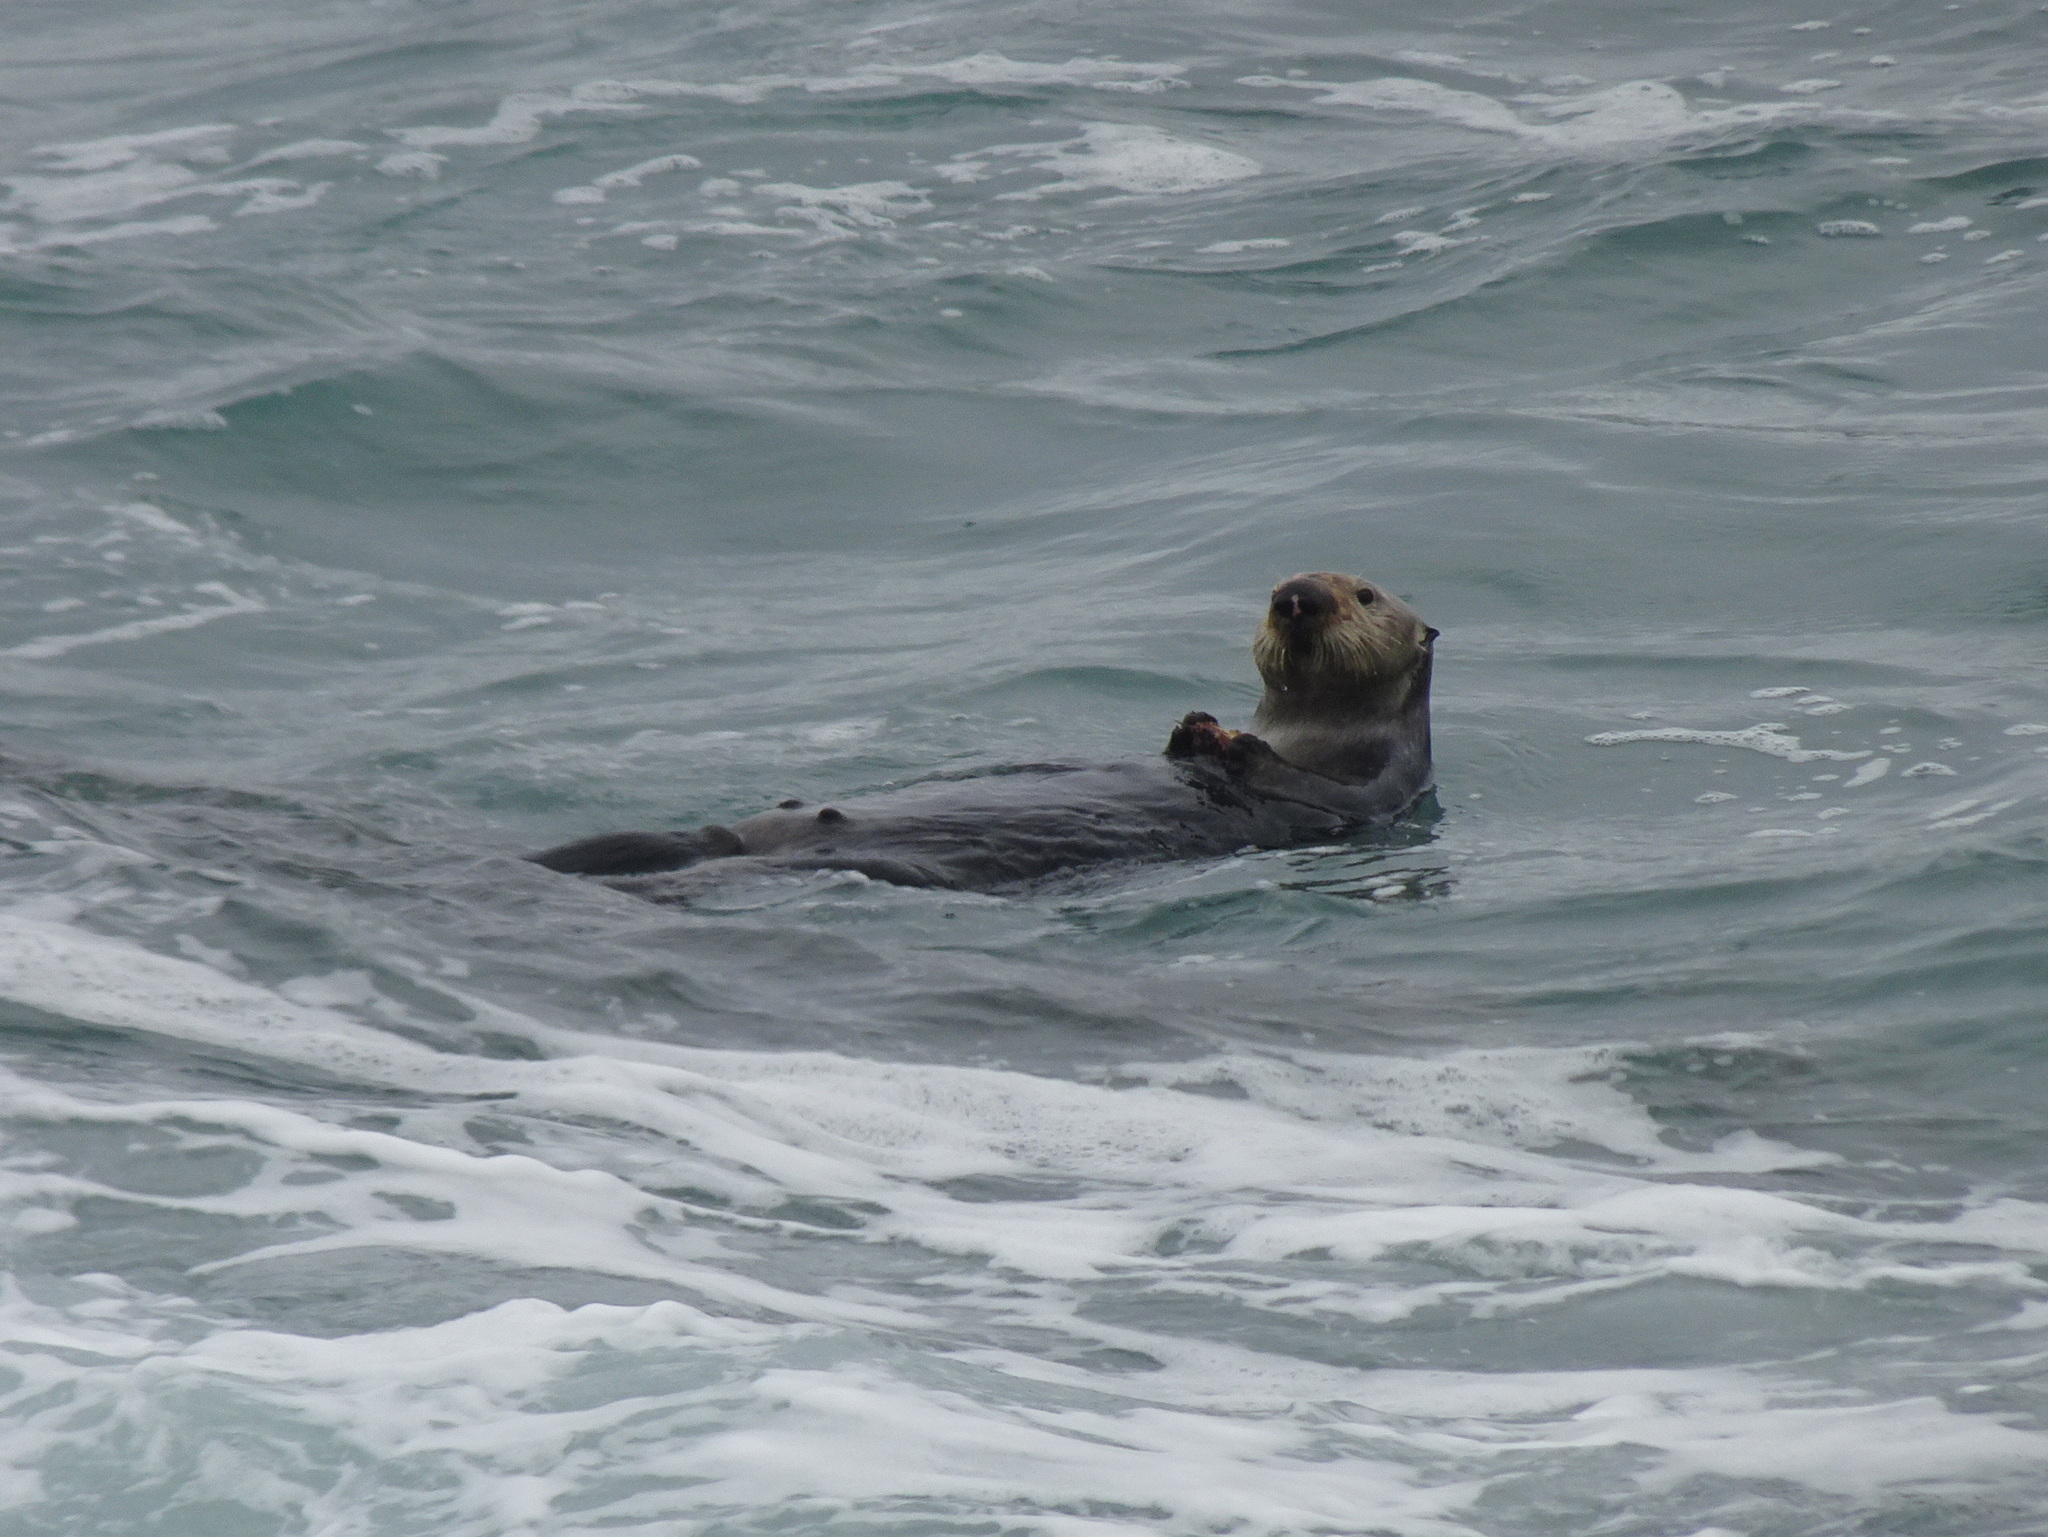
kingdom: Animalia
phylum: Chordata
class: Mammalia
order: Carnivora
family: Mustelidae
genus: Enhydra
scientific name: Enhydra lutris
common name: Sea otter
